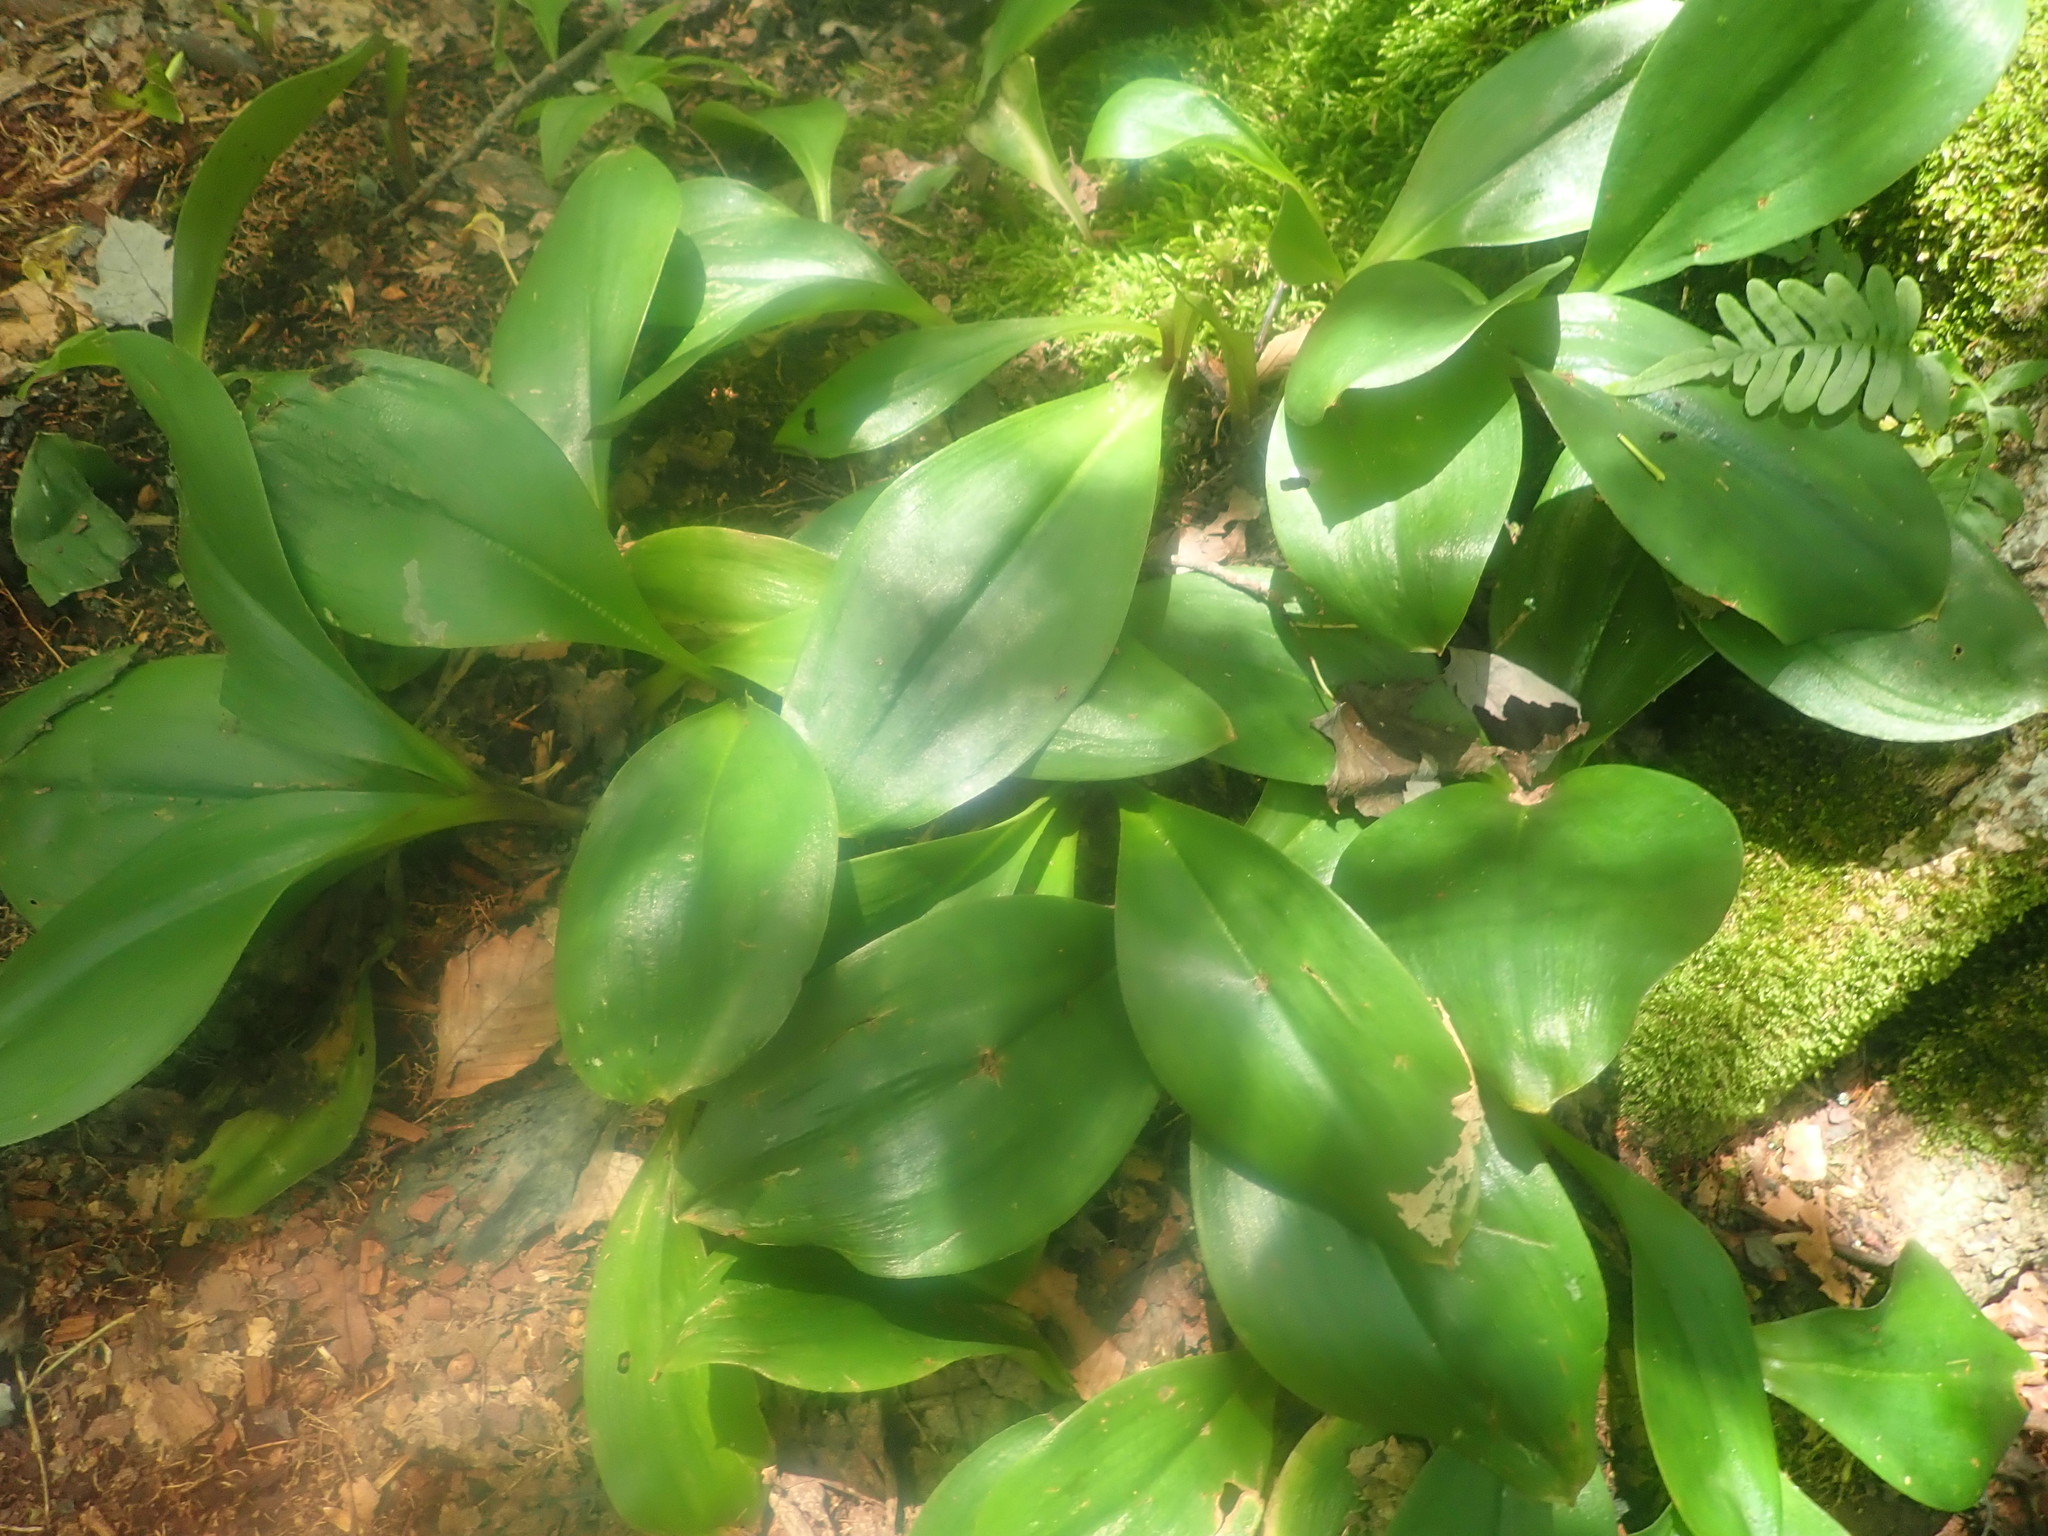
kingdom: Plantae
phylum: Tracheophyta
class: Liliopsida
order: Liliales
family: Liliaceae
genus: Clintonia
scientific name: Clintonia
